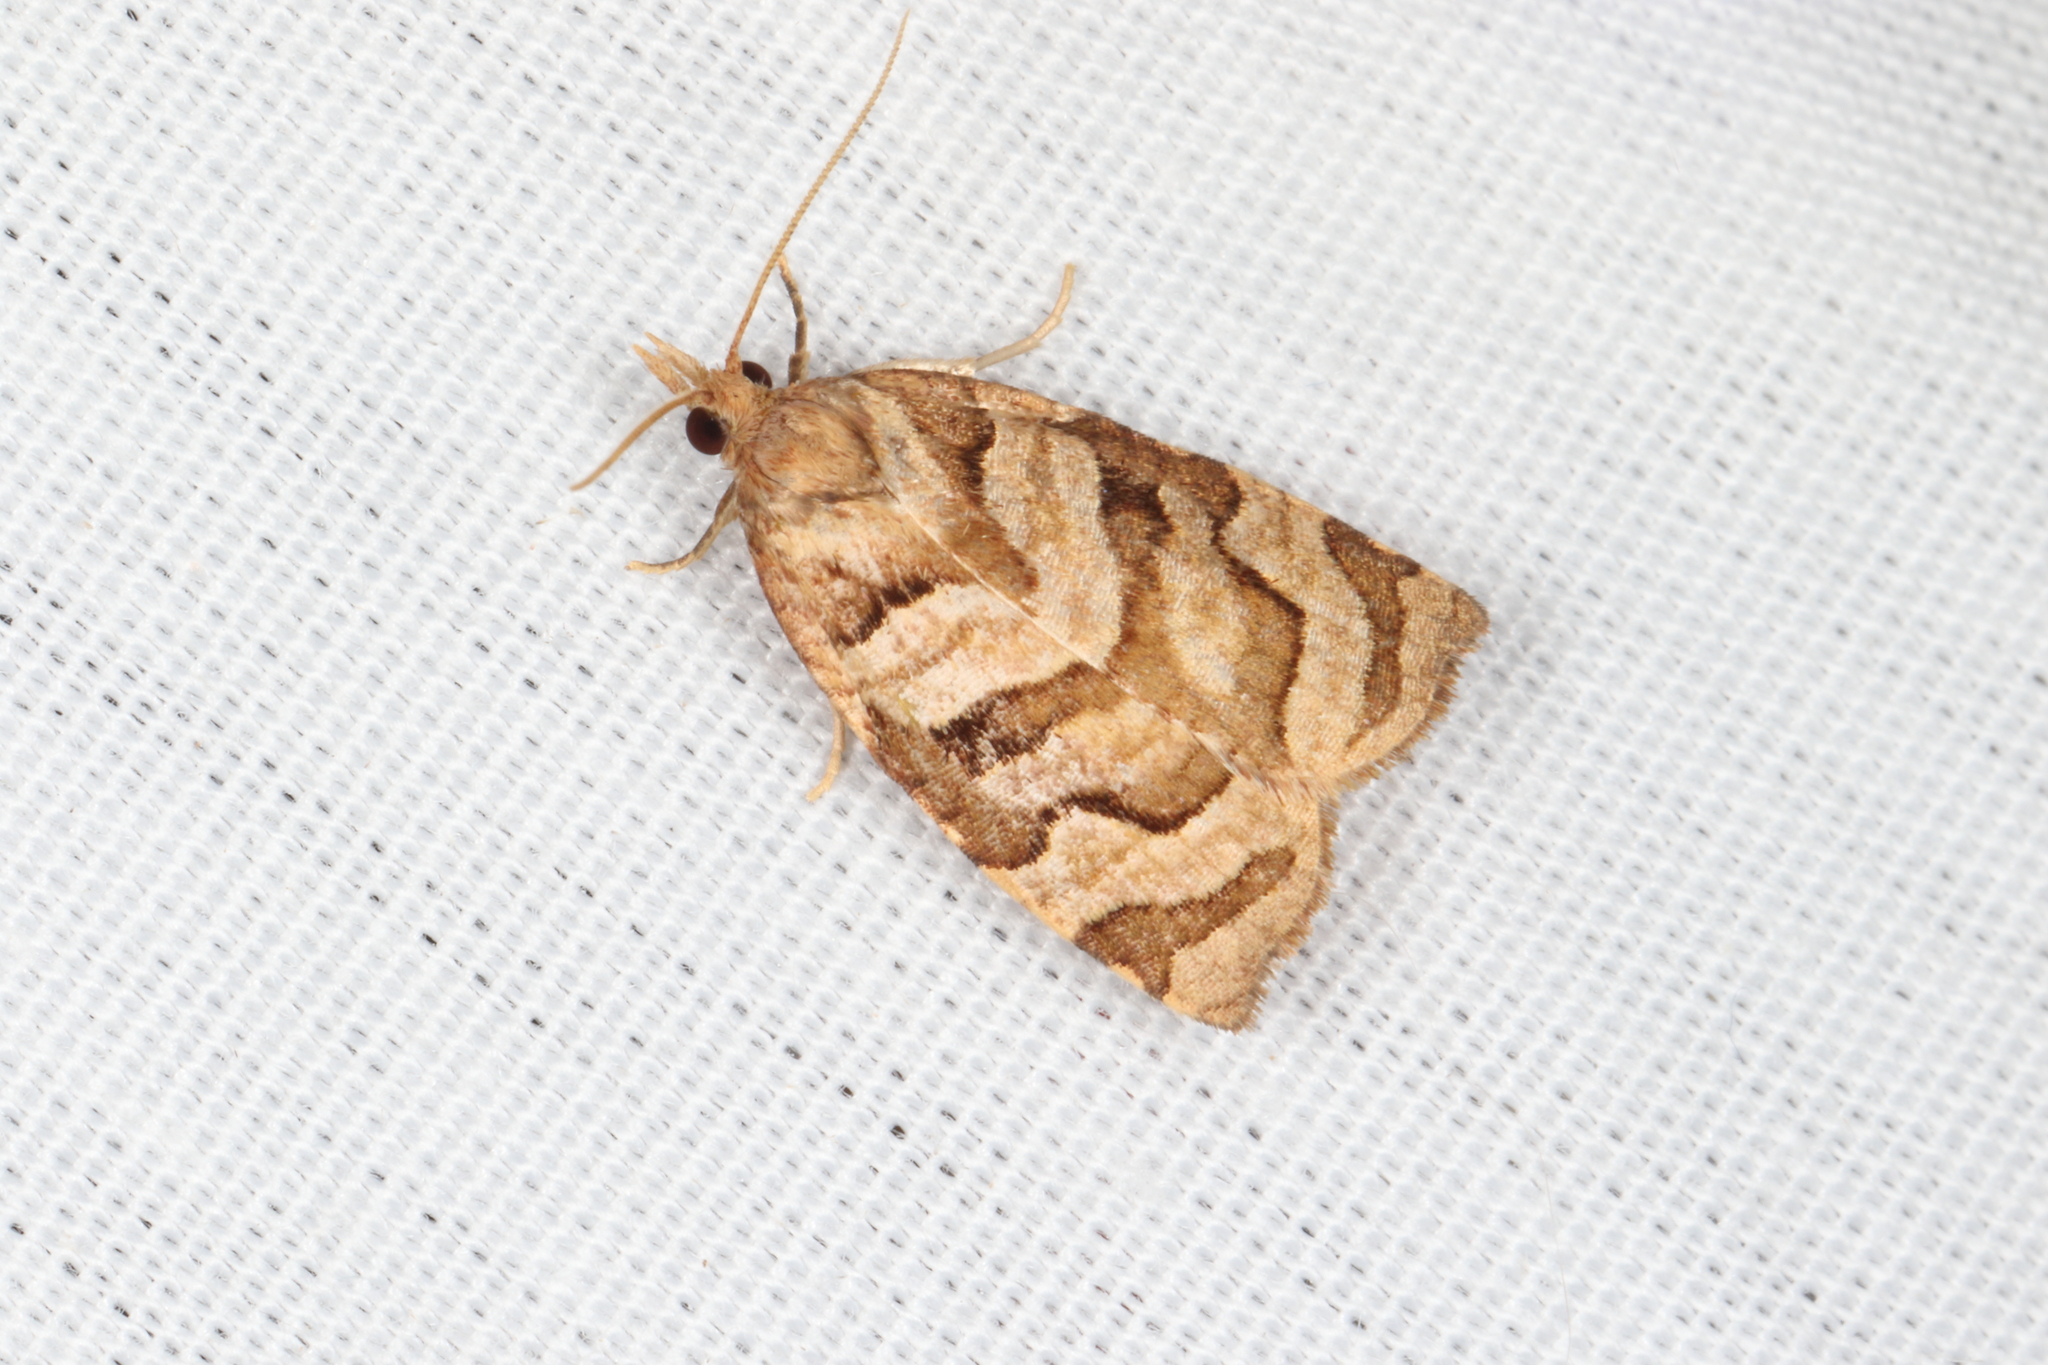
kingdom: Animalia
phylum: Arthropoda
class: Insecta
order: Lepidoptera
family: Tortricidae
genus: Apoctena
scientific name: Apoctena tigris
